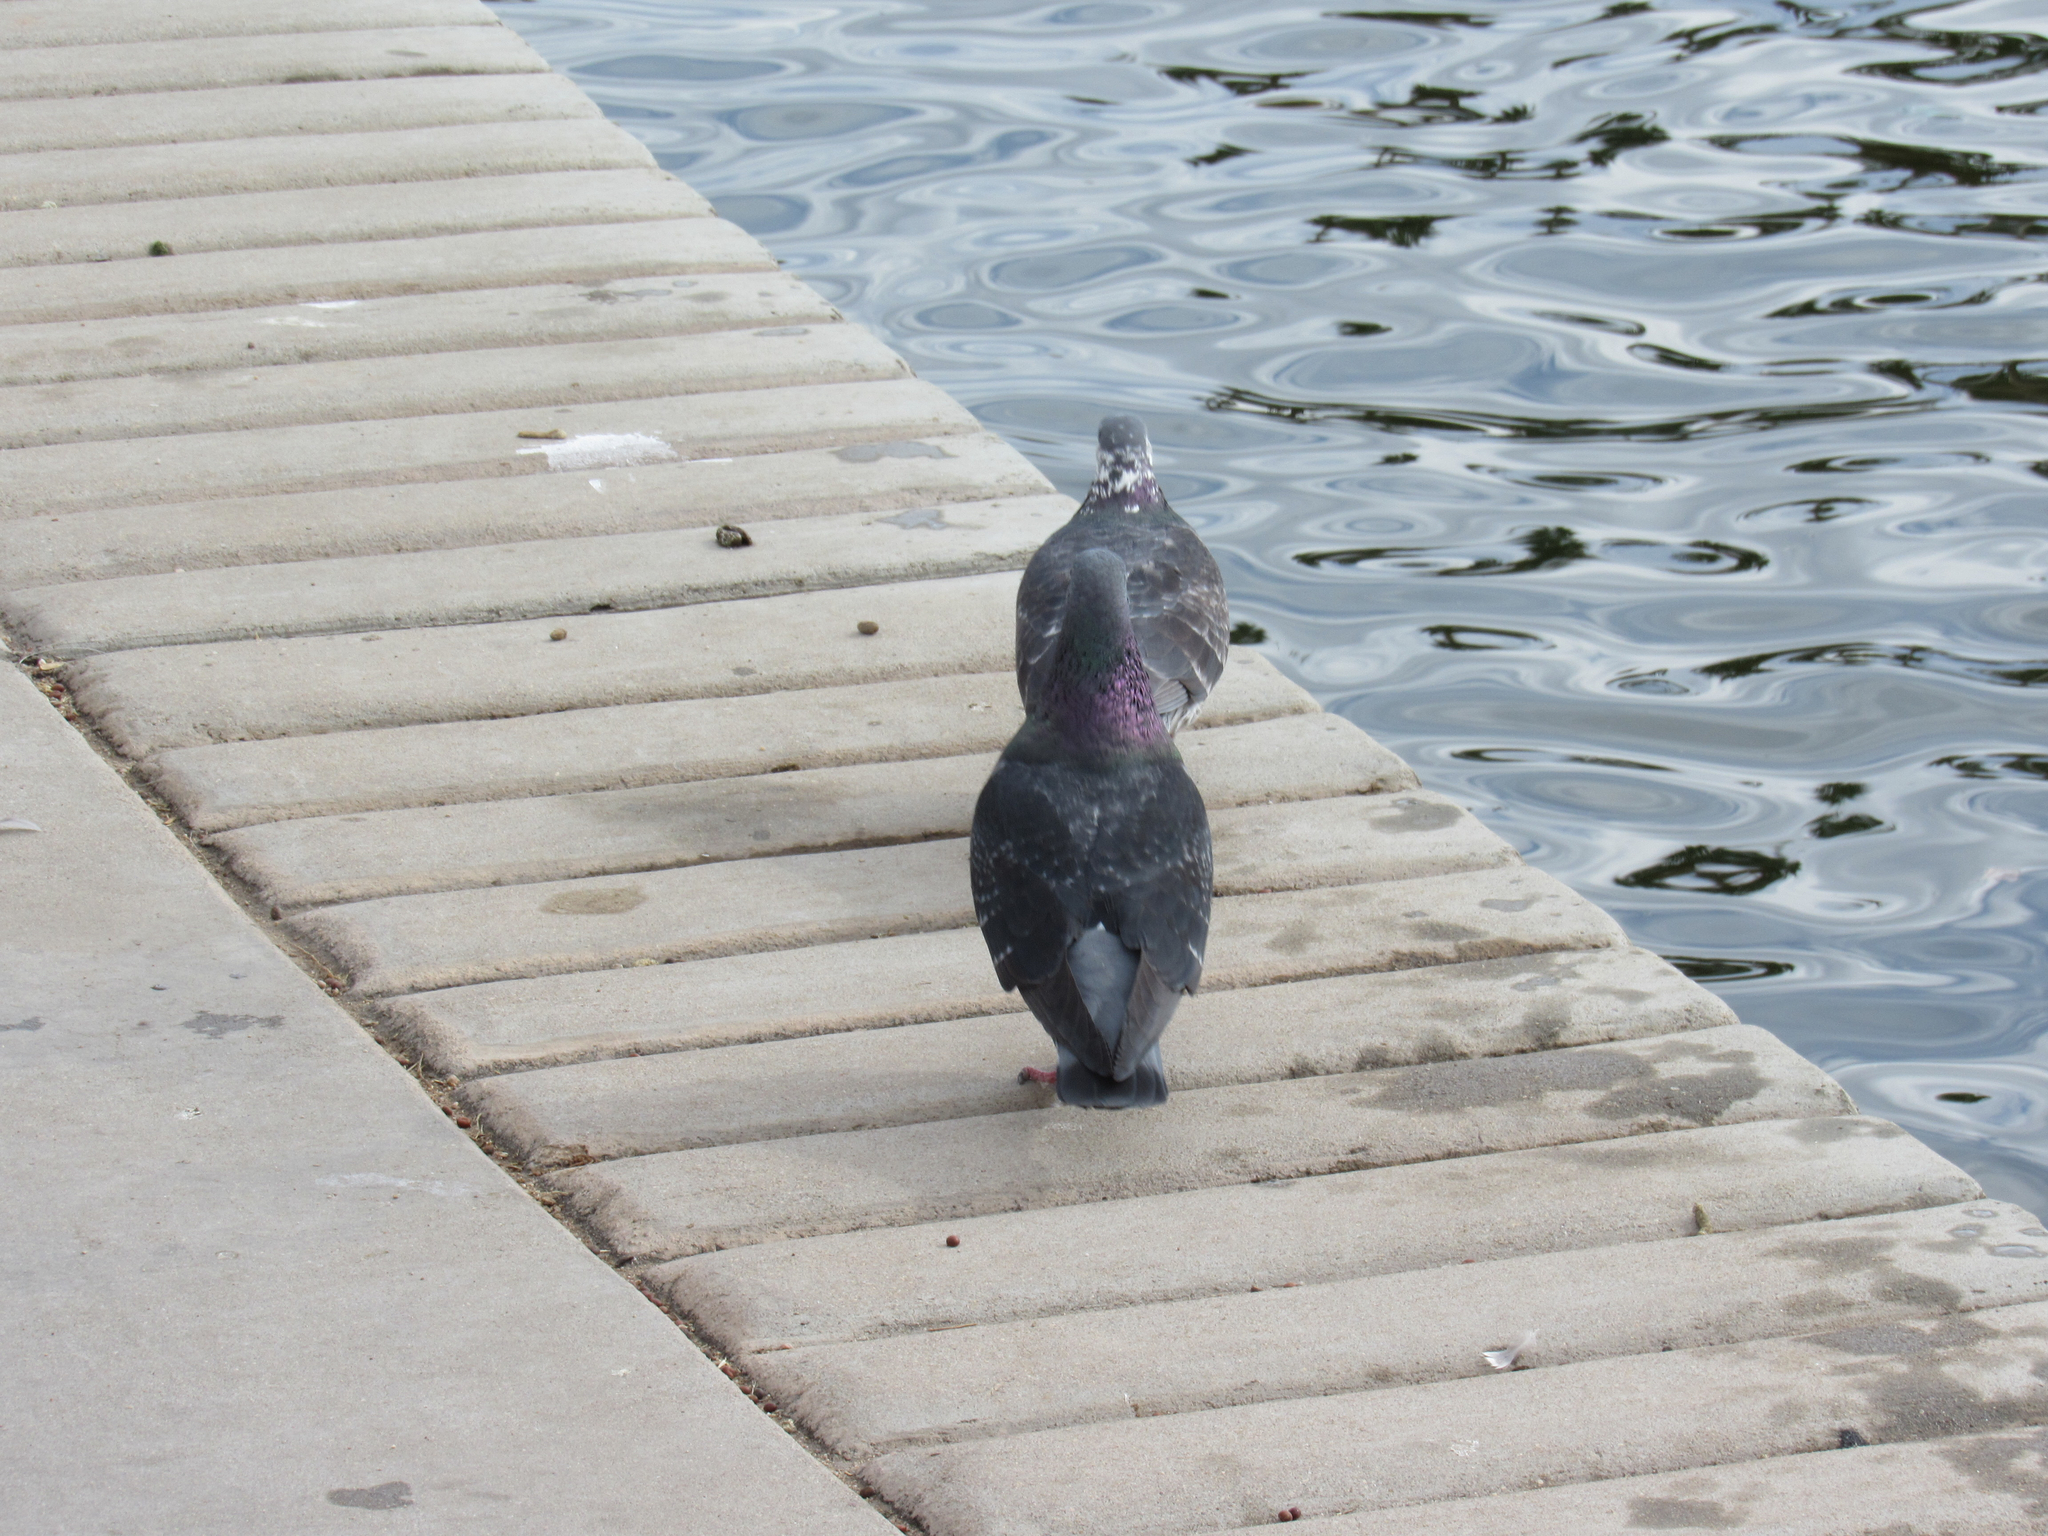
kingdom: Animalia
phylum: Chordata
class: Aves
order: Columbiformes
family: Columbidae
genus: Columba
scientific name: Columba livia
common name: Rock pigeon
